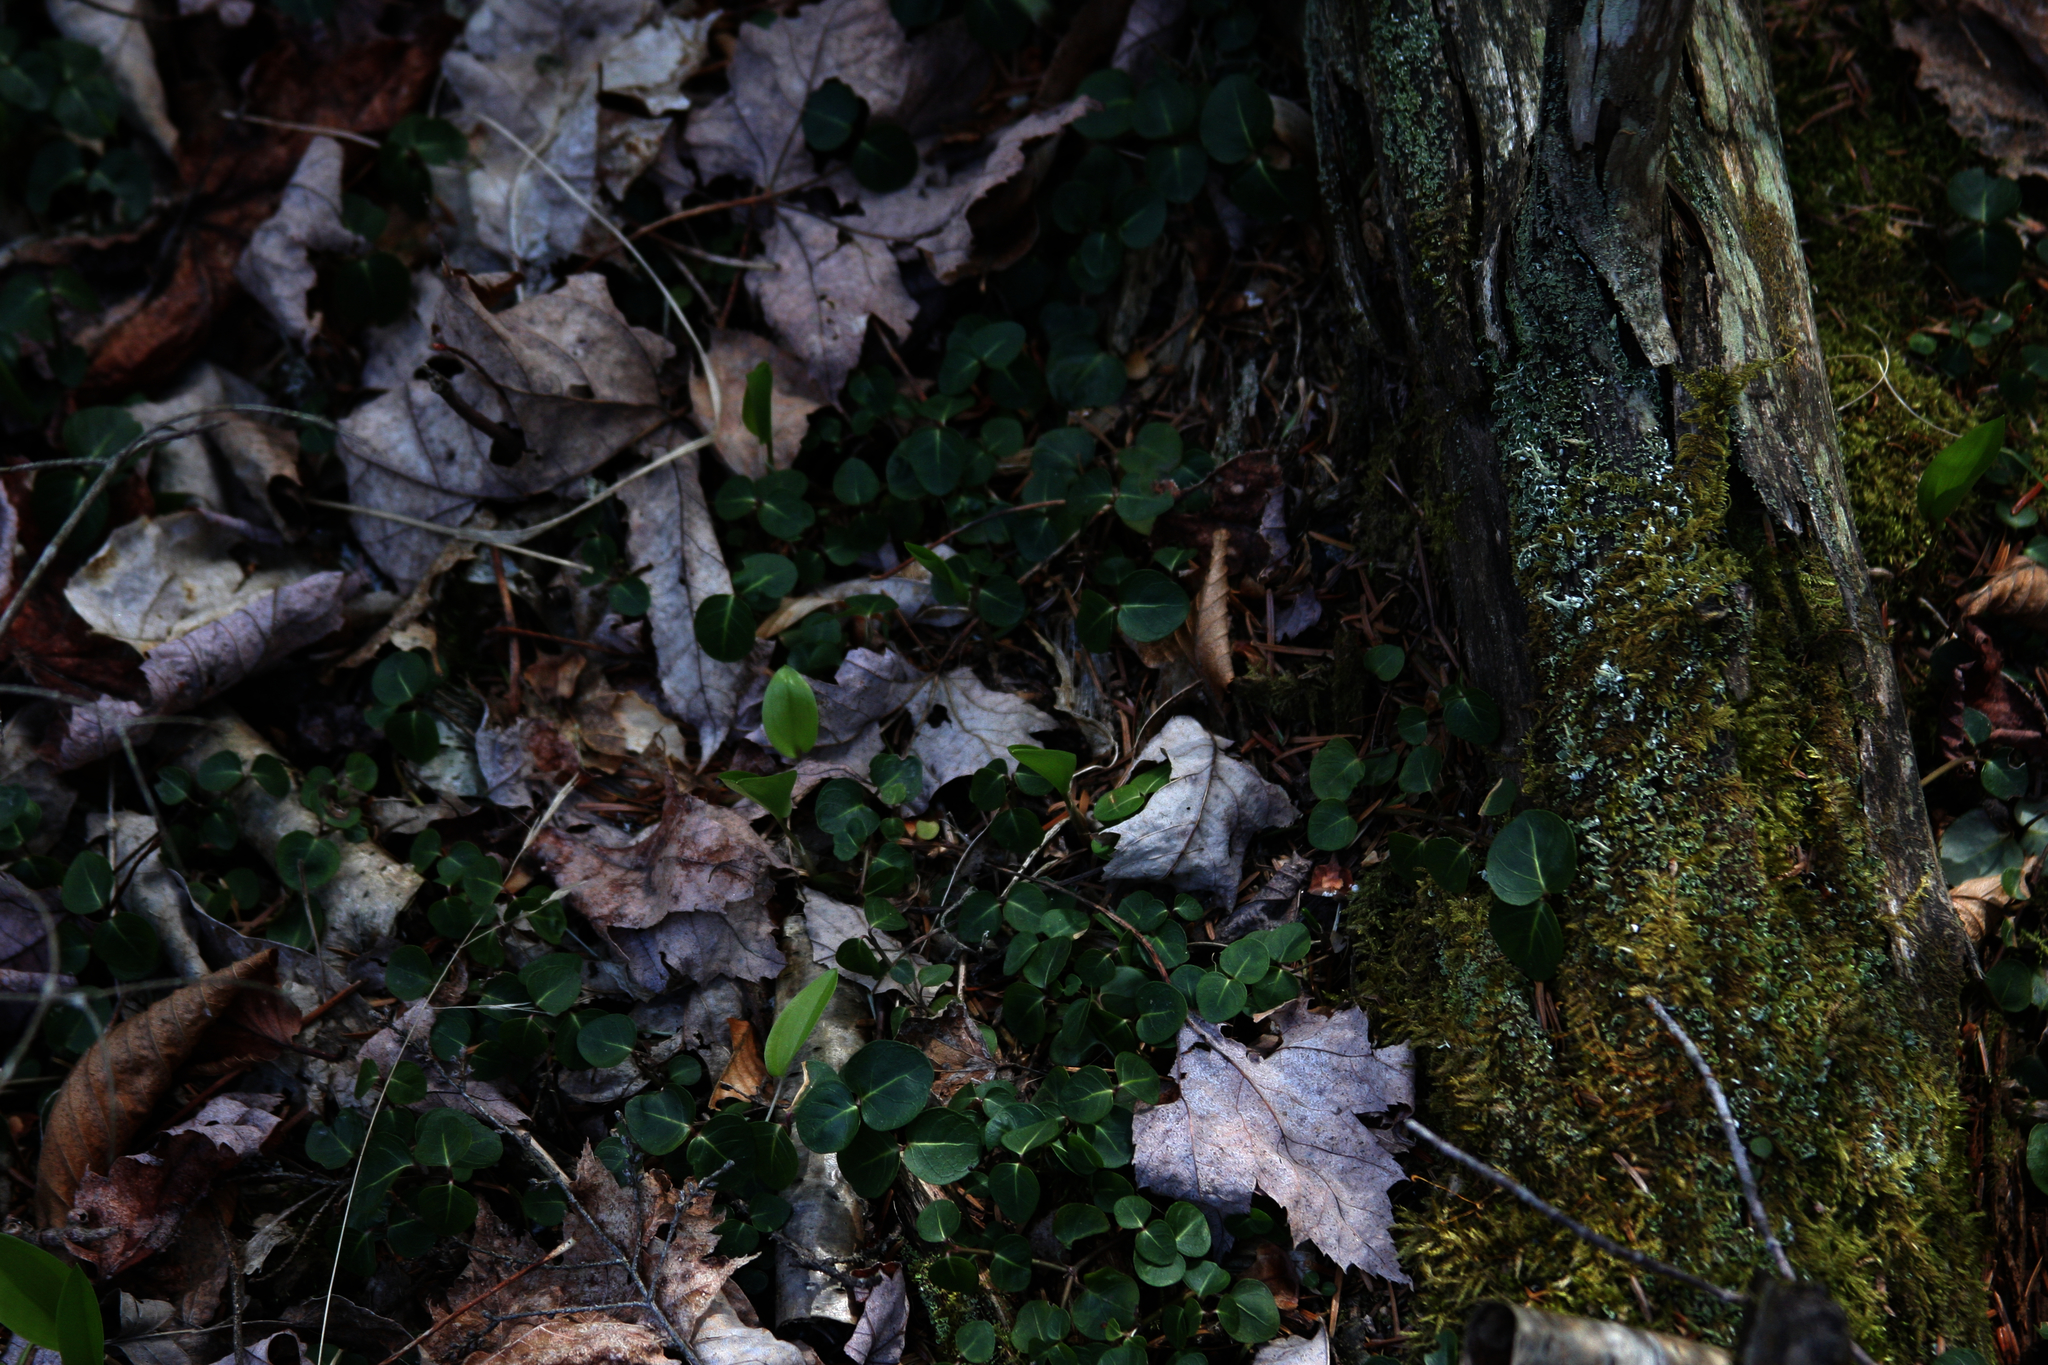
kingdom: Plantae
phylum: Tracheophyta
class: Magnoliopsida
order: Gentianales
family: Rubiaceae
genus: Mitchella
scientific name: Mitchella repens
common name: Partridge-berry
